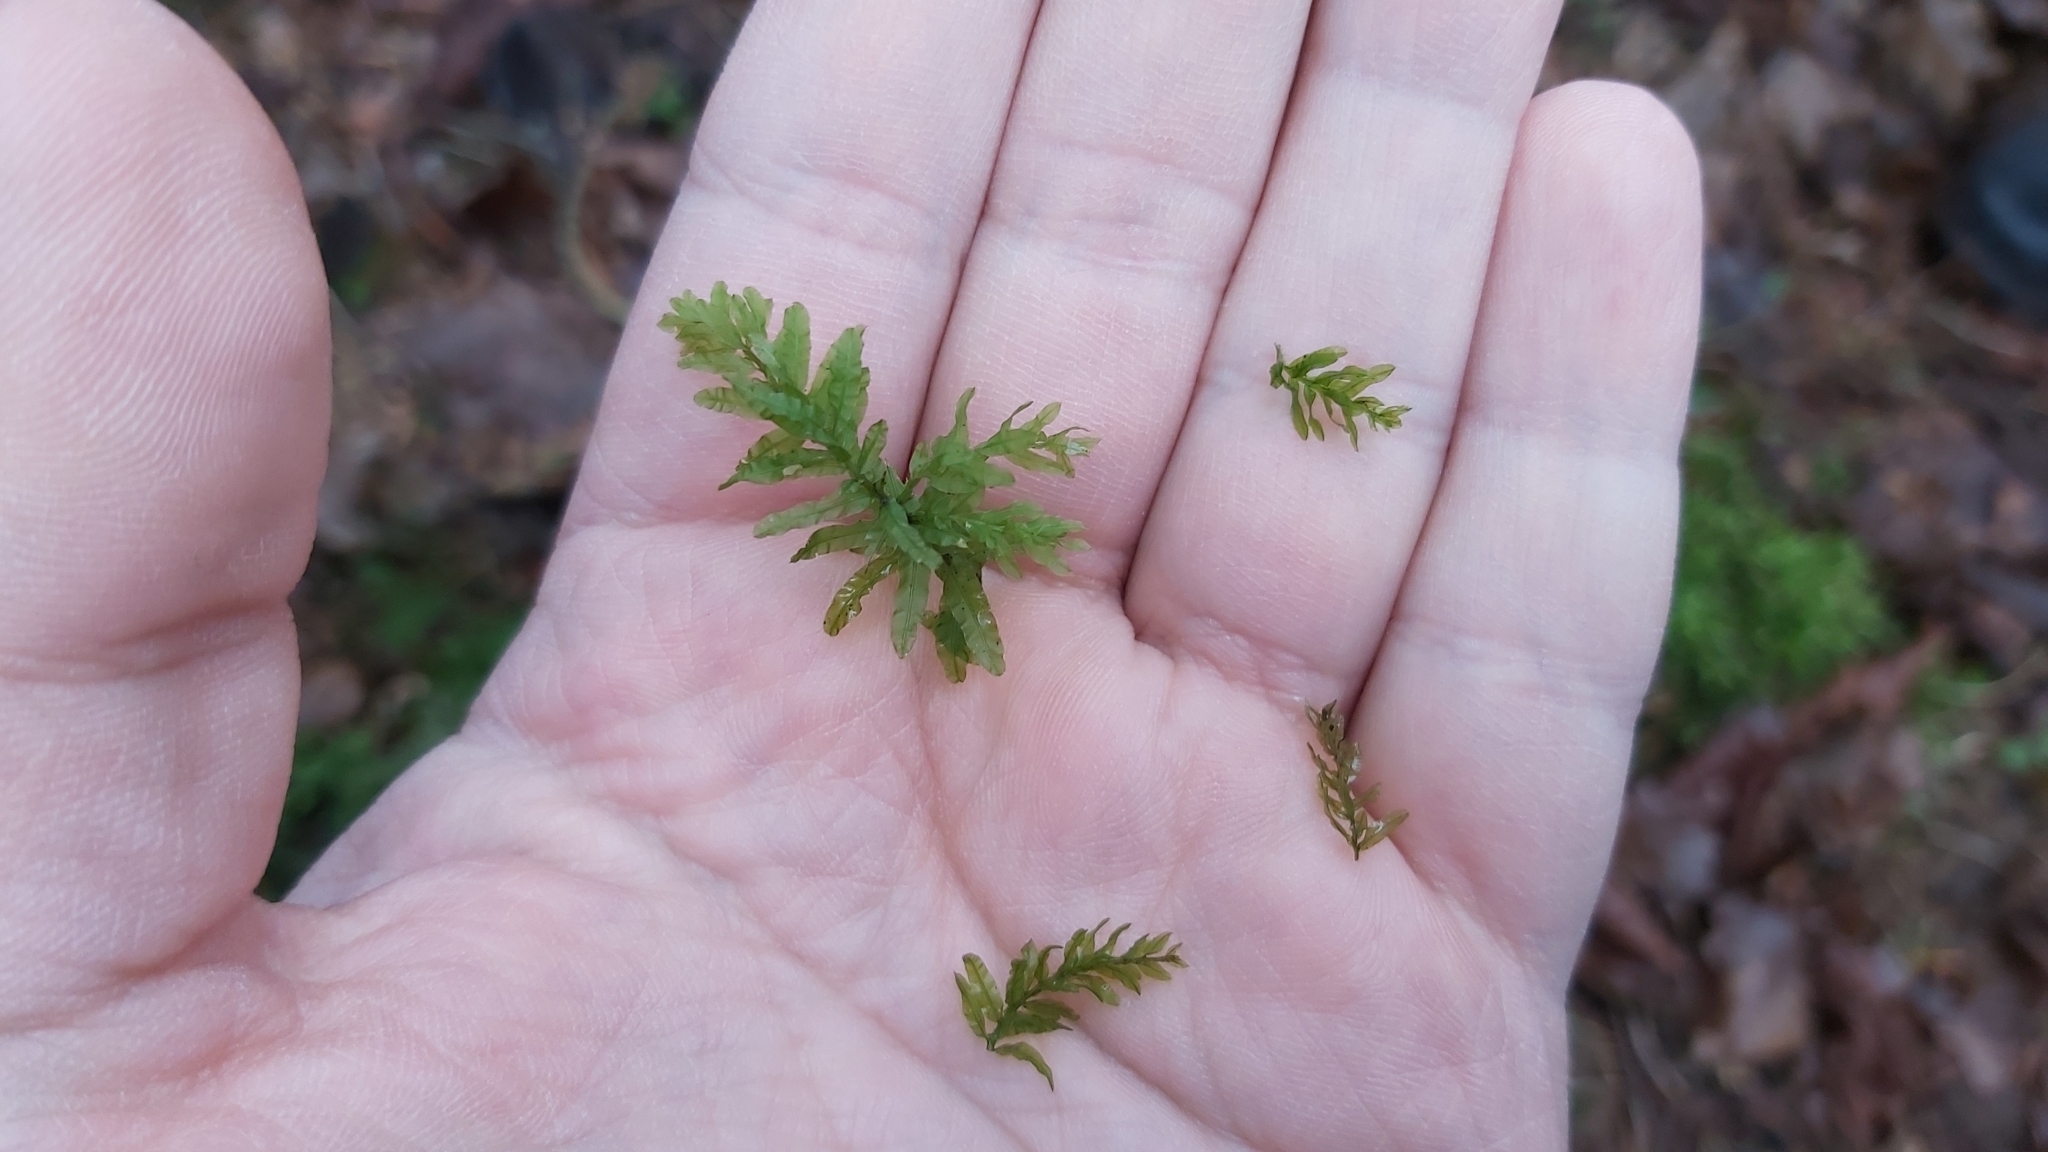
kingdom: Plantae
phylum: Bryophyta
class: Bryopsida
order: Bryales
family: Mniaceae
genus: Plagiomnium
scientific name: Plagiomnium undulatum
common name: Hart's-tongue thyme-moss
